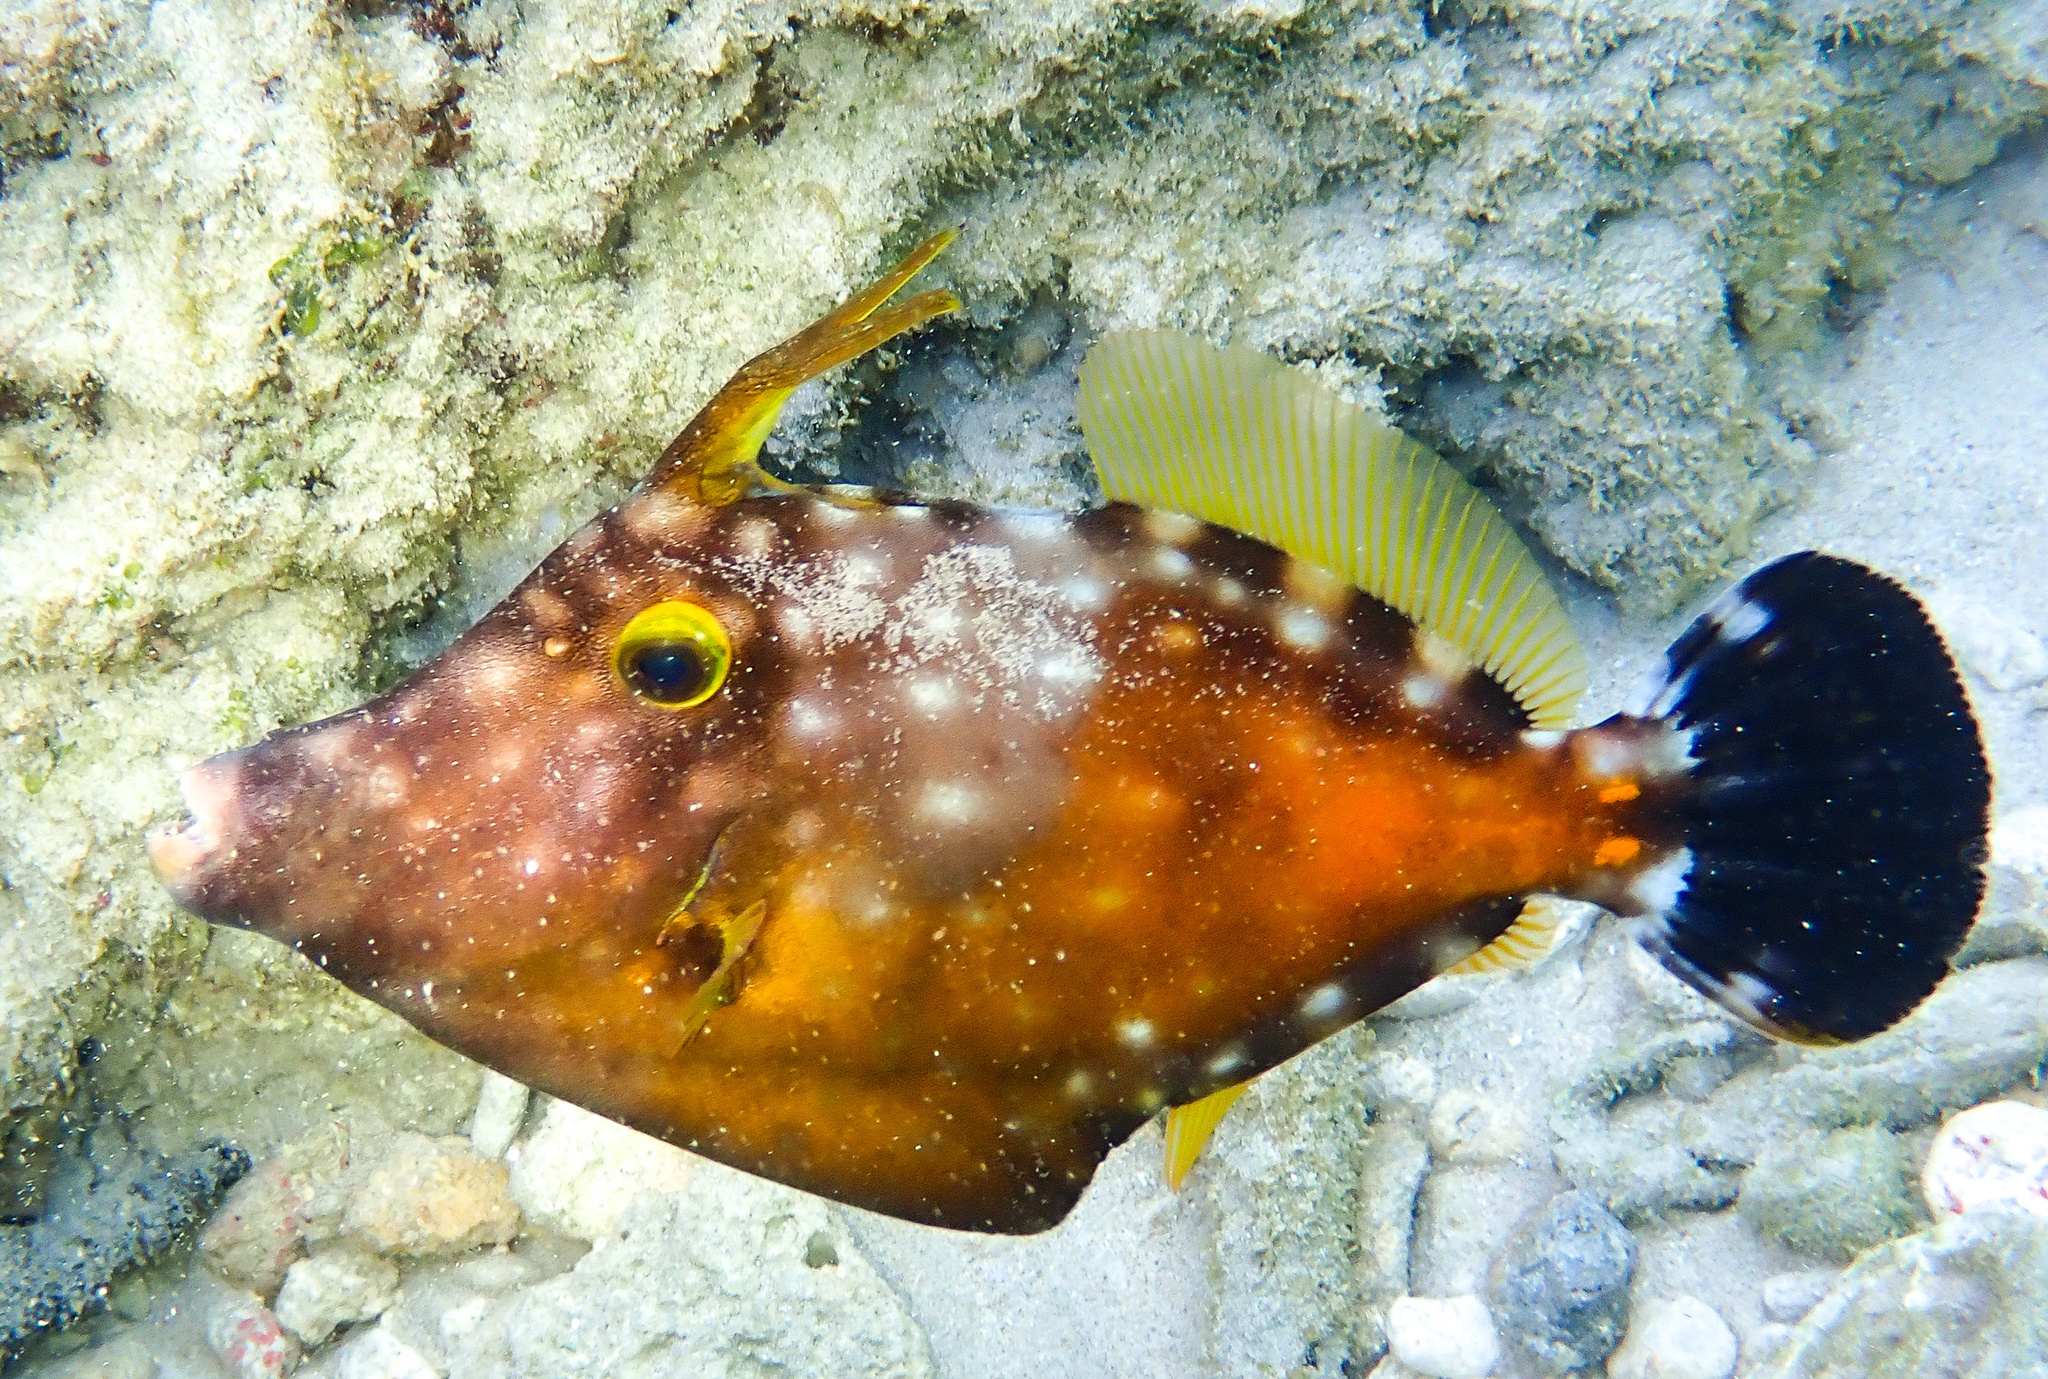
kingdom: Animalia
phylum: Chordata
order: Tetraodontiformes
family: Monacanthidae
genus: Cantherhines
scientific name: Cantherhines macrocerus
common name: Whitespotted filefish
